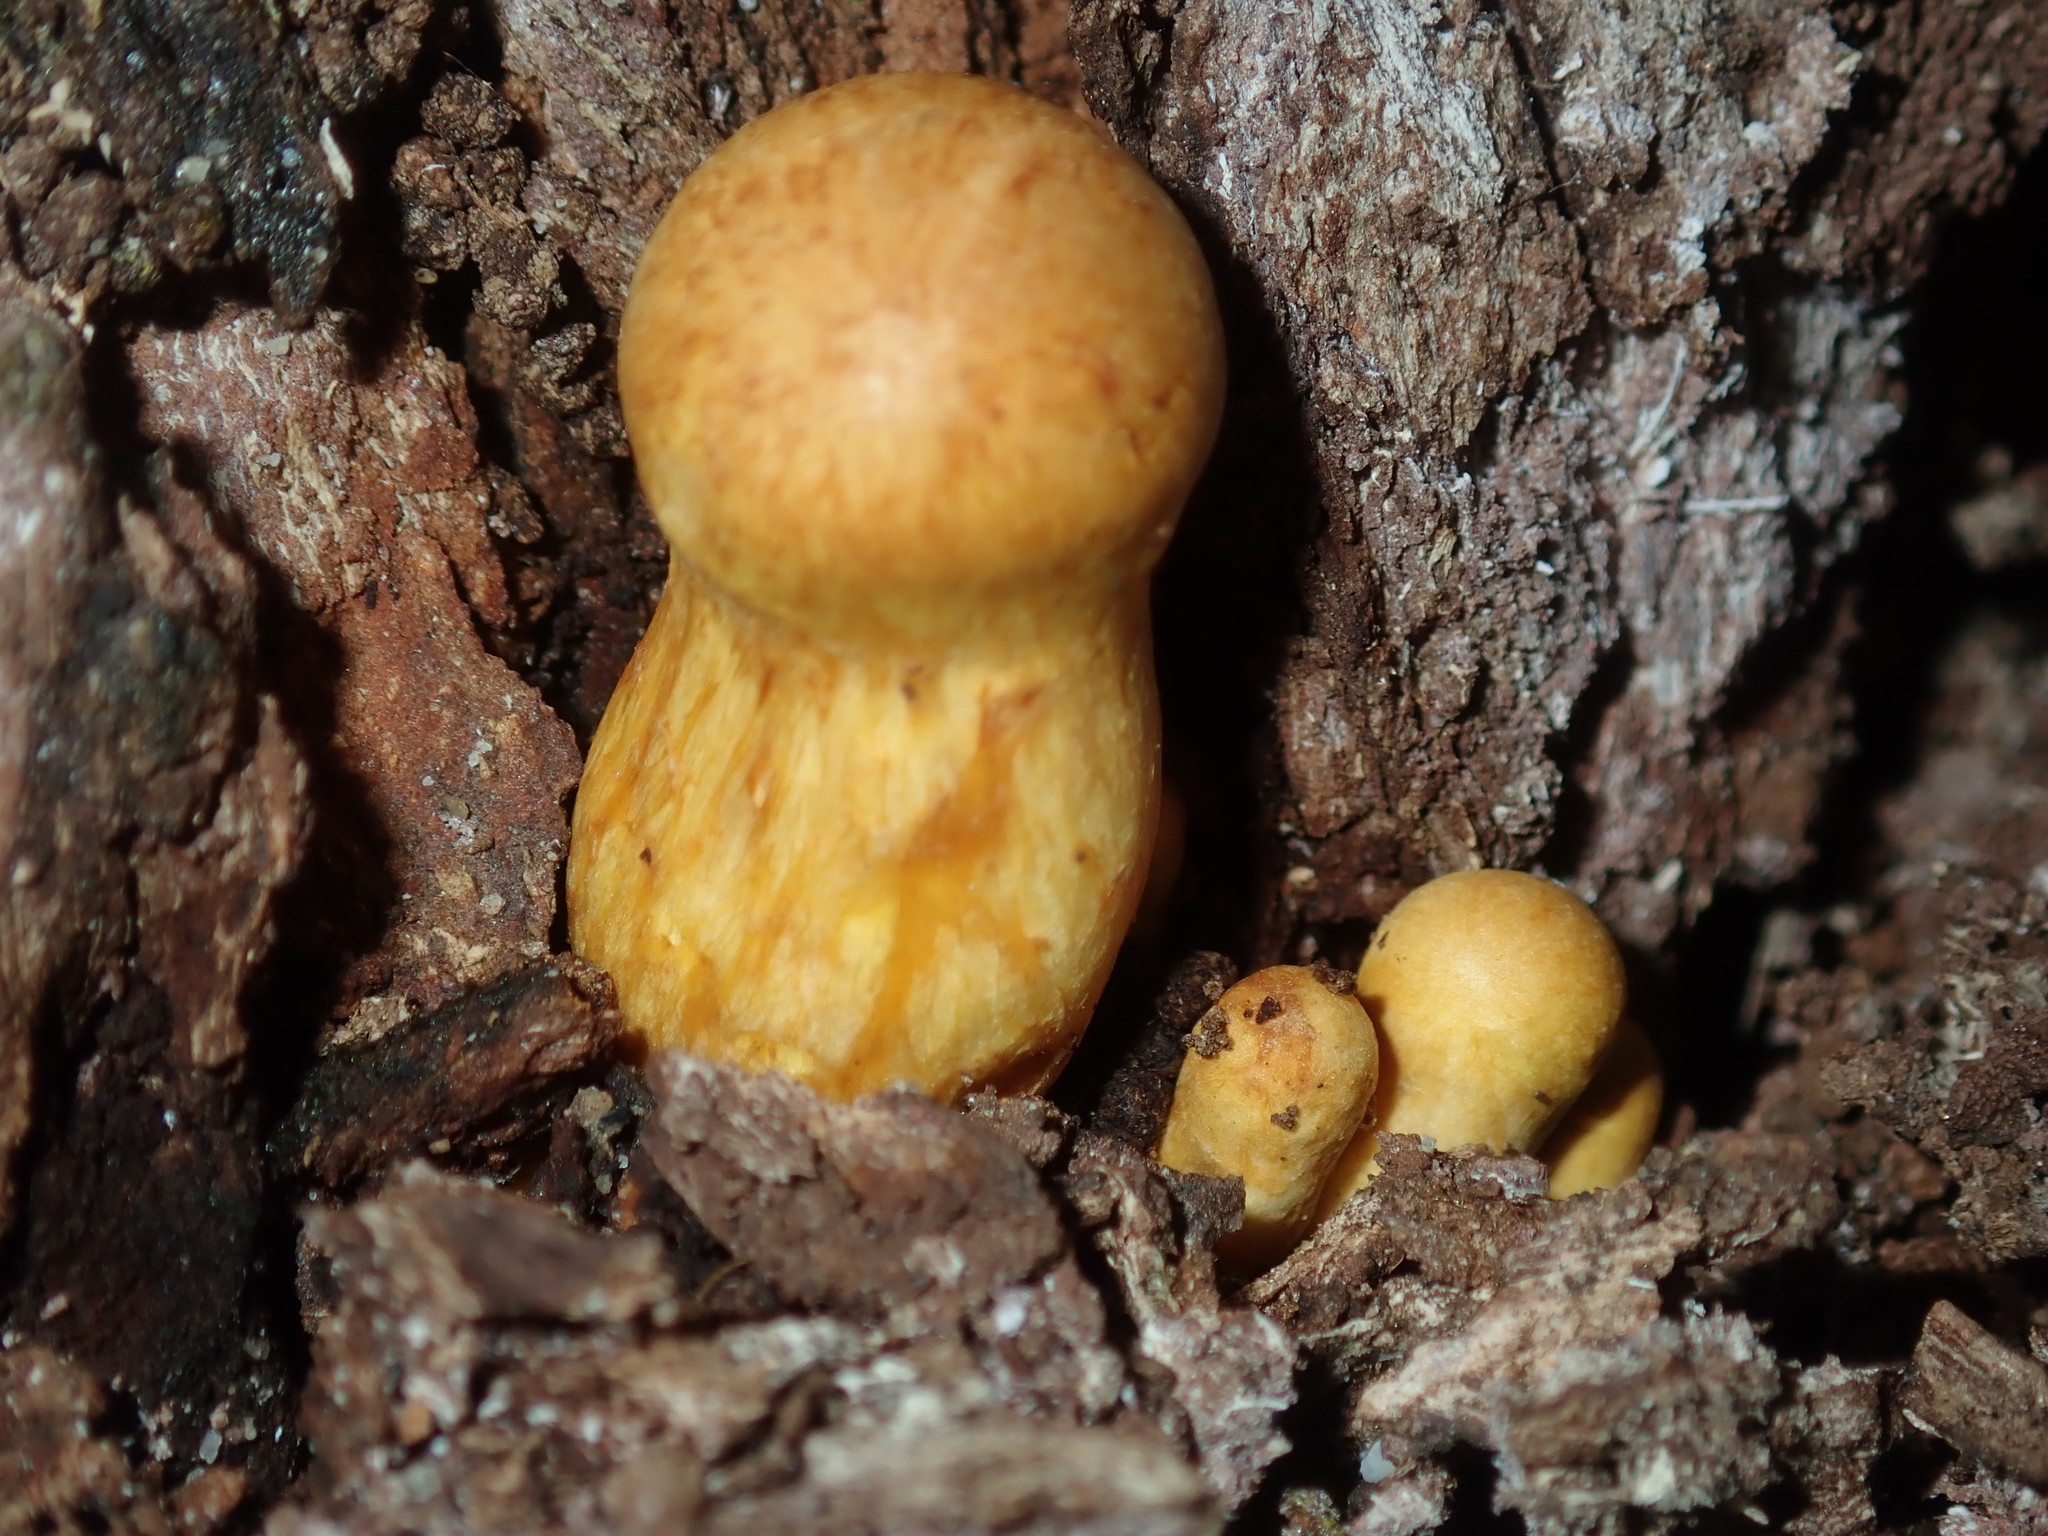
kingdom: Fungi
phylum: Basidiomycota
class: Agaricomycetes
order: Agaricales
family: Hymenogastraceae
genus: Gymnopilus
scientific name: Gymnopilus junonius
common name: Spectacular rustgill
